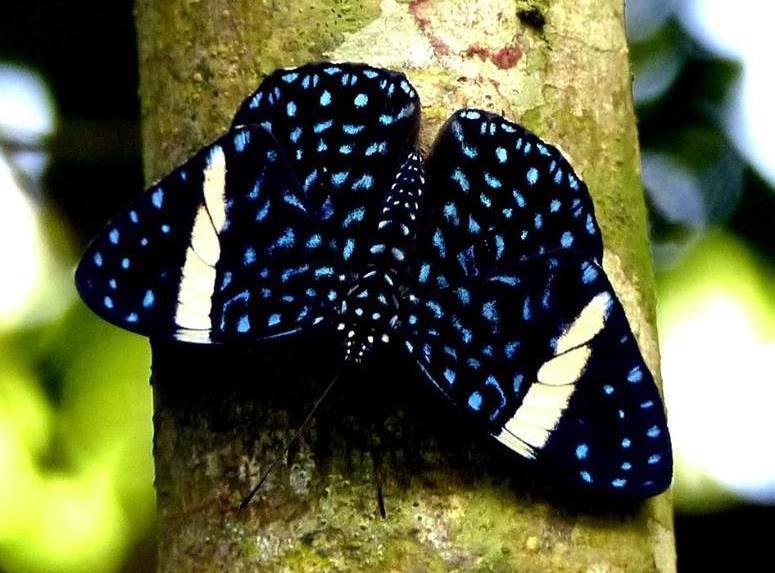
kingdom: Animalia
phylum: Arthropoda
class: Insecta
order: Lepidoptera
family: Nymphalidae
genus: Hamadryas
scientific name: Hamadryas laodamia
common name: Starry night cracker
